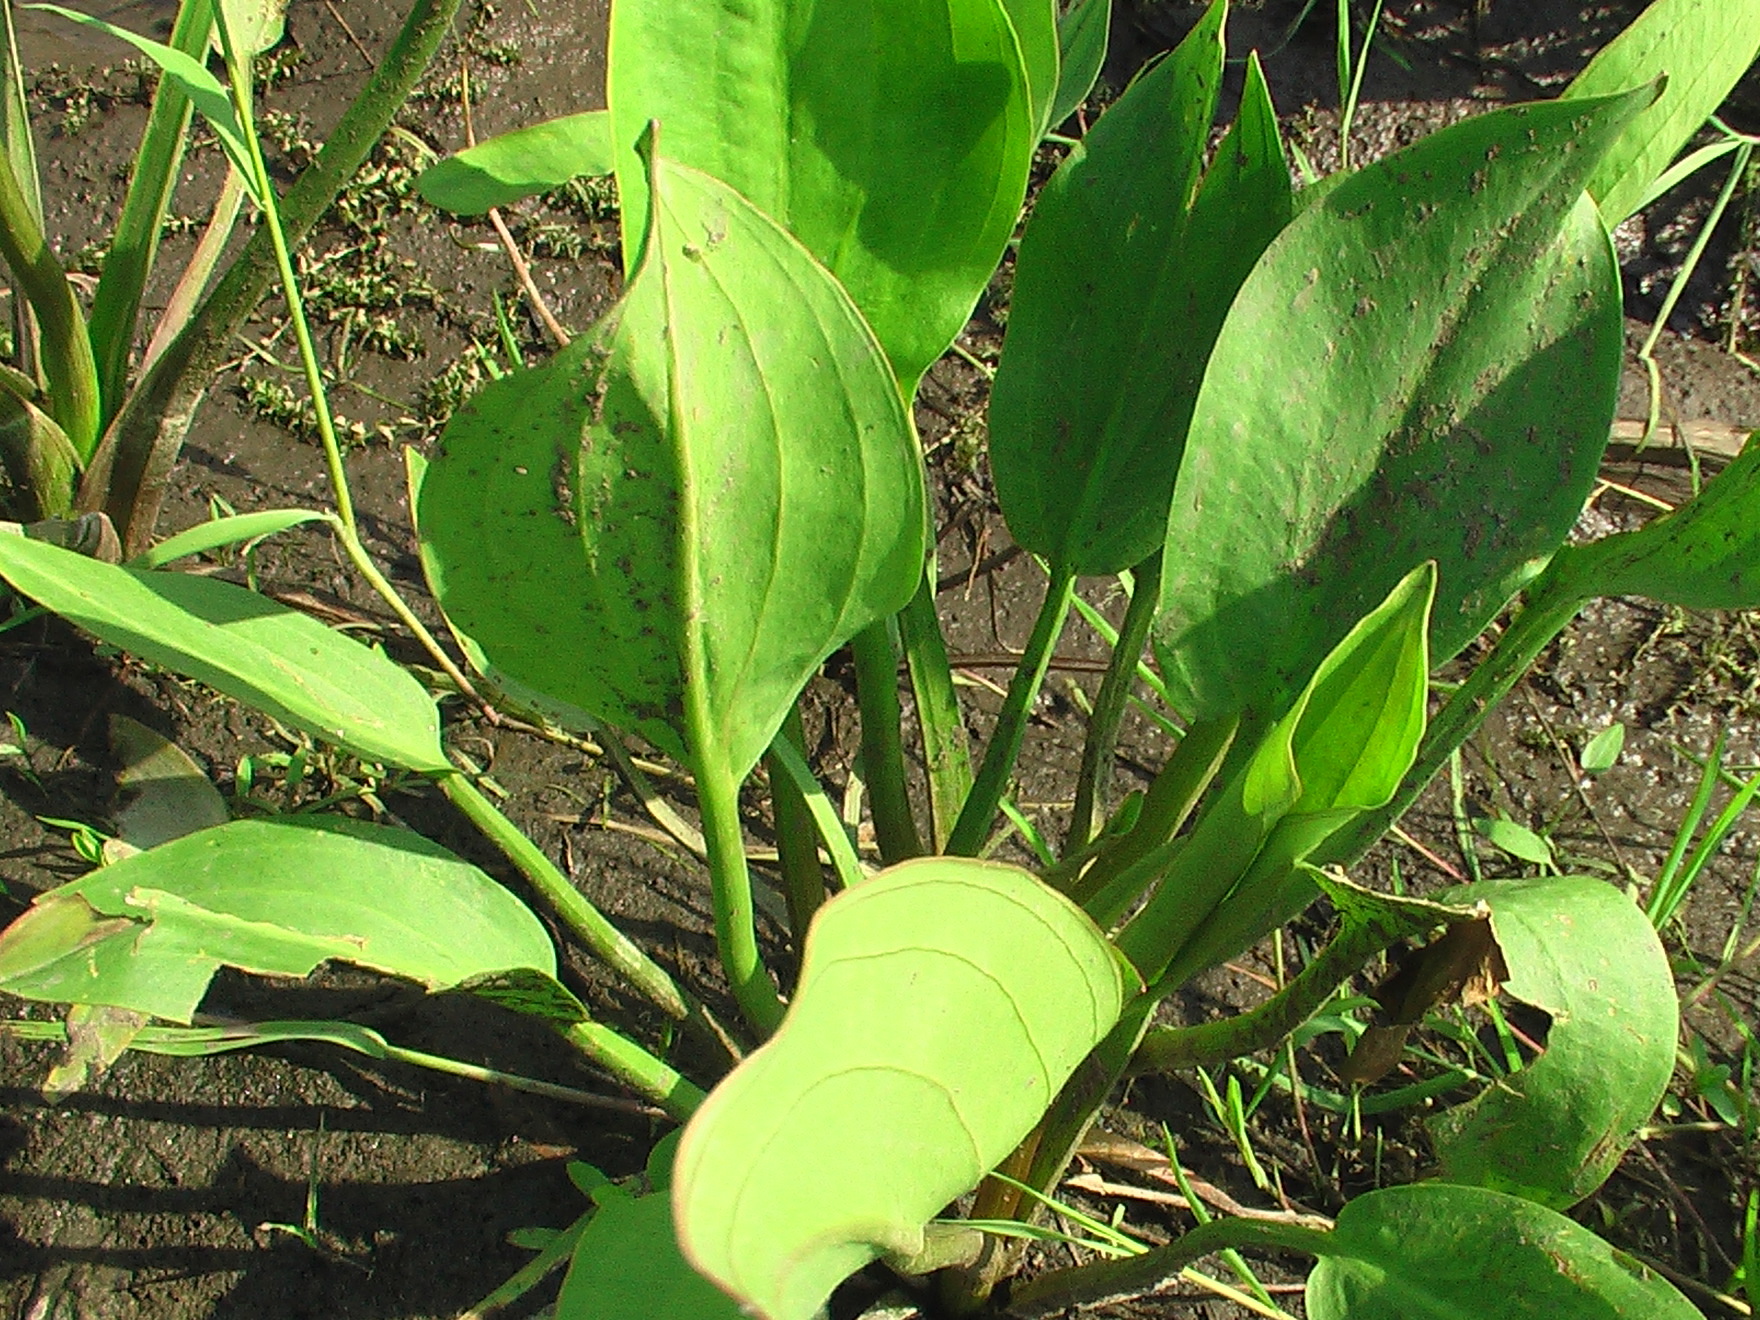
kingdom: Plantae
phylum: Tracheophyta
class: Liliopsida
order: Alismatales
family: Alismataceae
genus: Alisma
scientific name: Alisma plantago-aquatica
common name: Water-plantain
